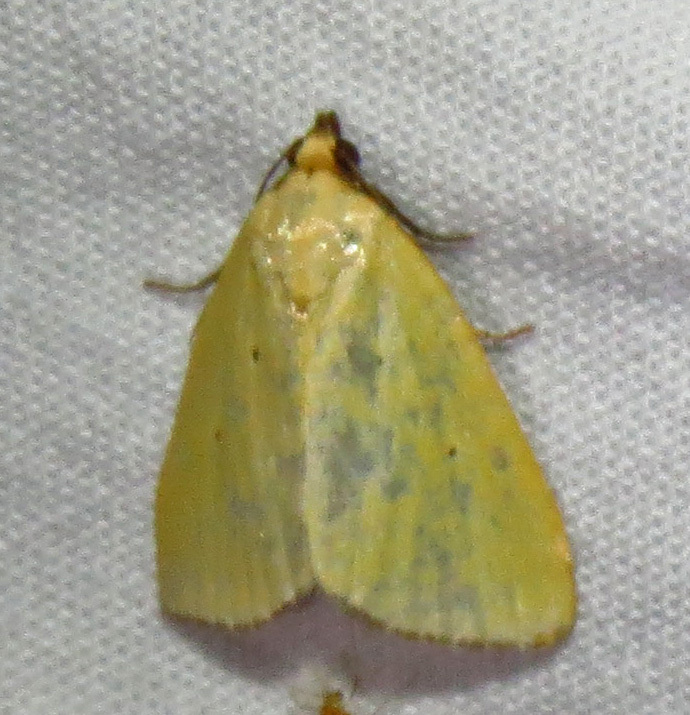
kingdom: Animalia
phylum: Arthropoda
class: Insecta
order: Lepidoptera
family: Noctuidae
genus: Marimatha
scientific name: Marimatha nigrofimbria
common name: Black-bordered lemon moth
